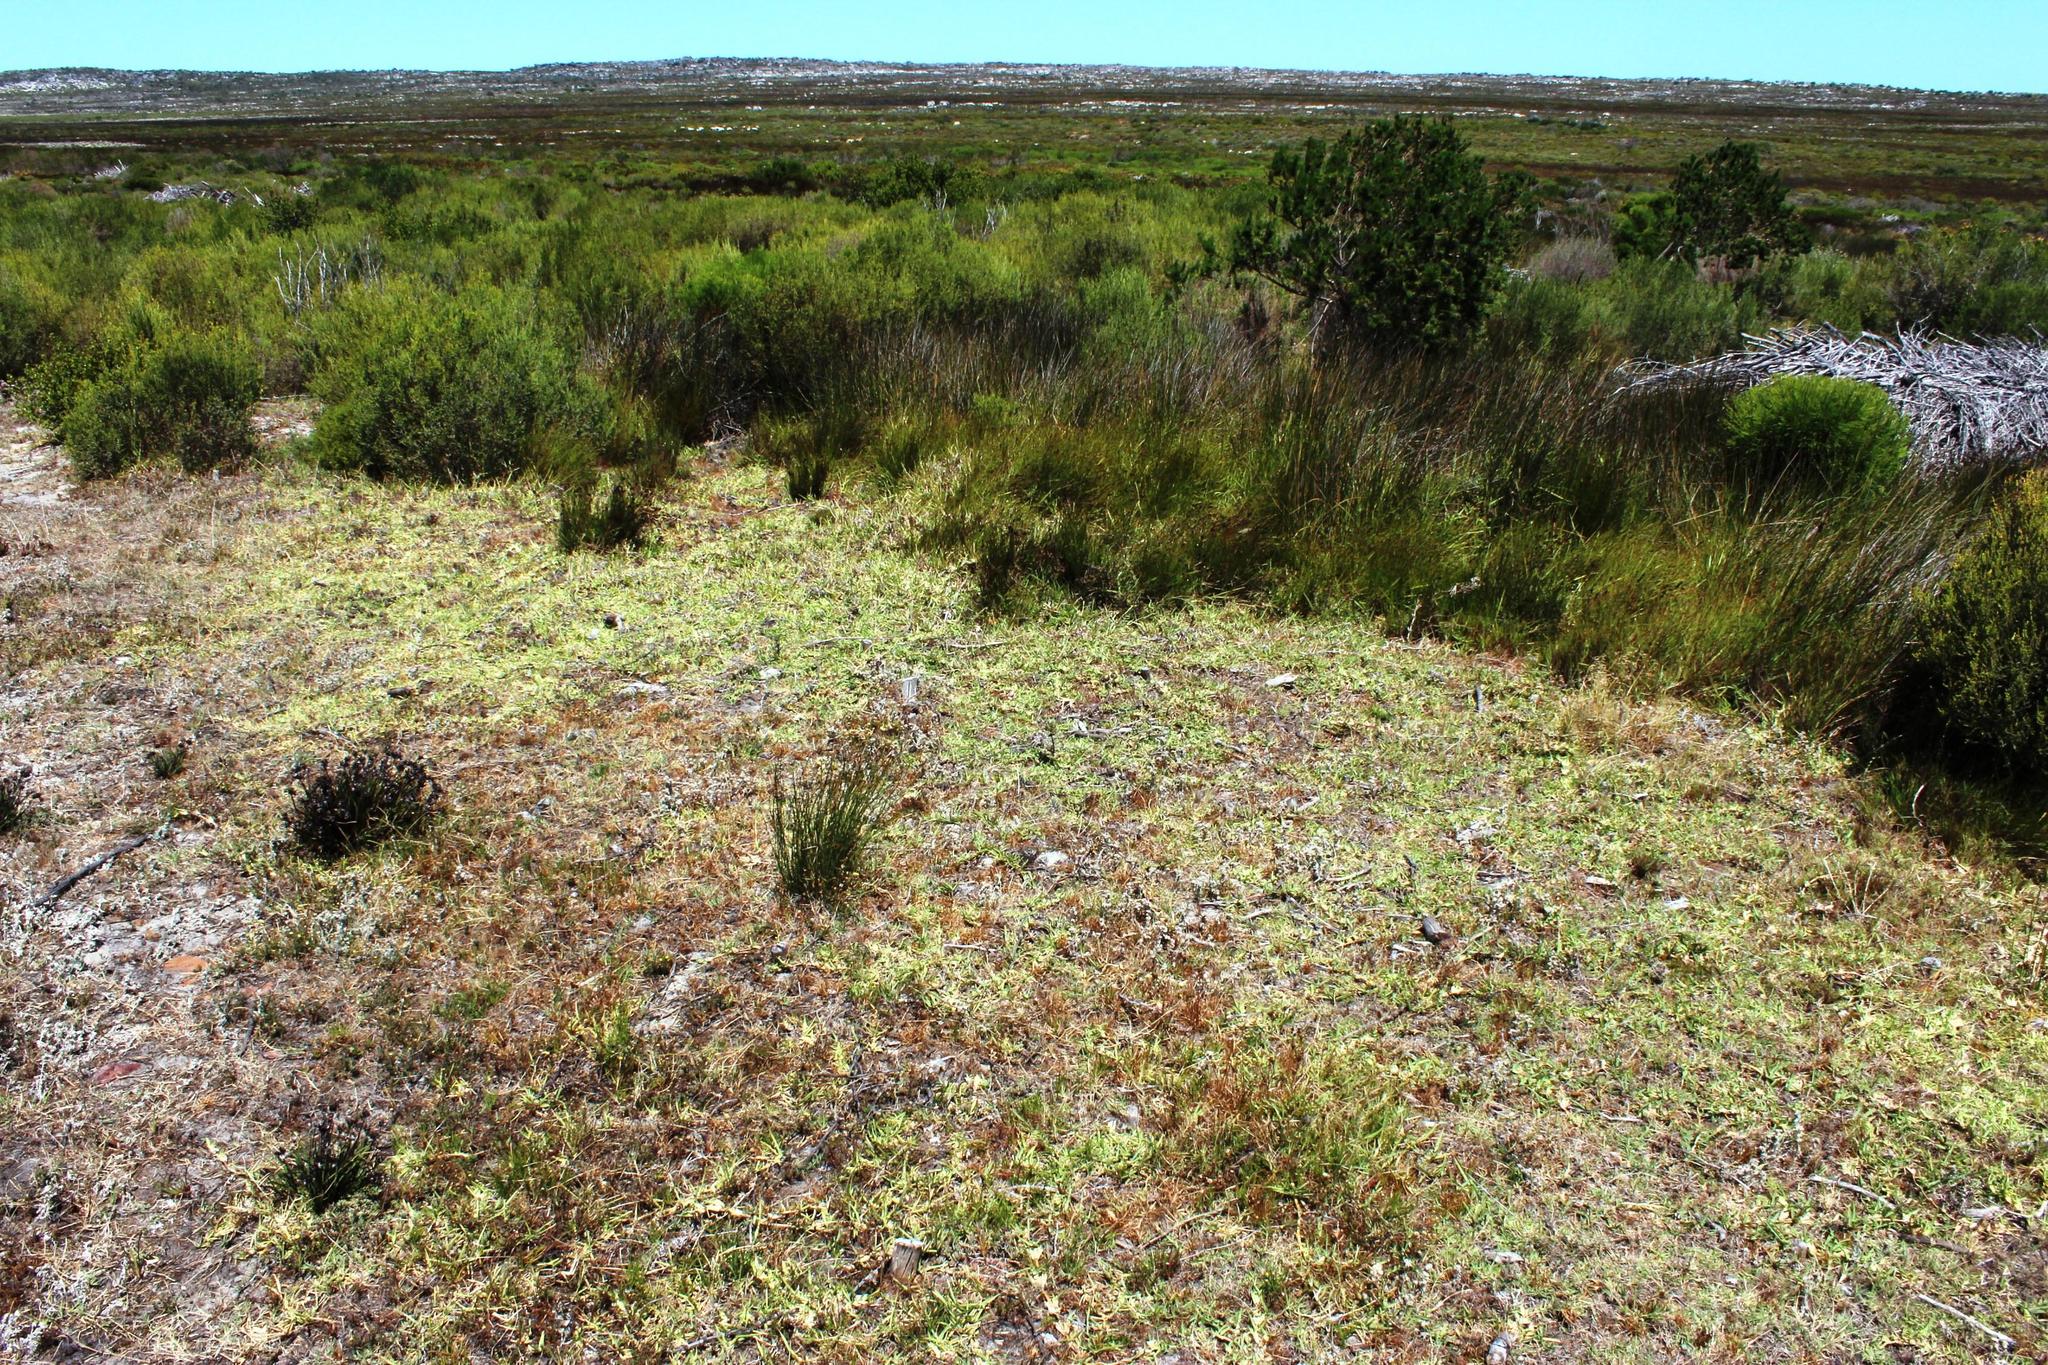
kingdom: Plantae
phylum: Tracheophyta
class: Liliopsida
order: Poales
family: Poaceae
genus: Stenotaphrum
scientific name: Stenotaphrum secundatum
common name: St. augustine grass
